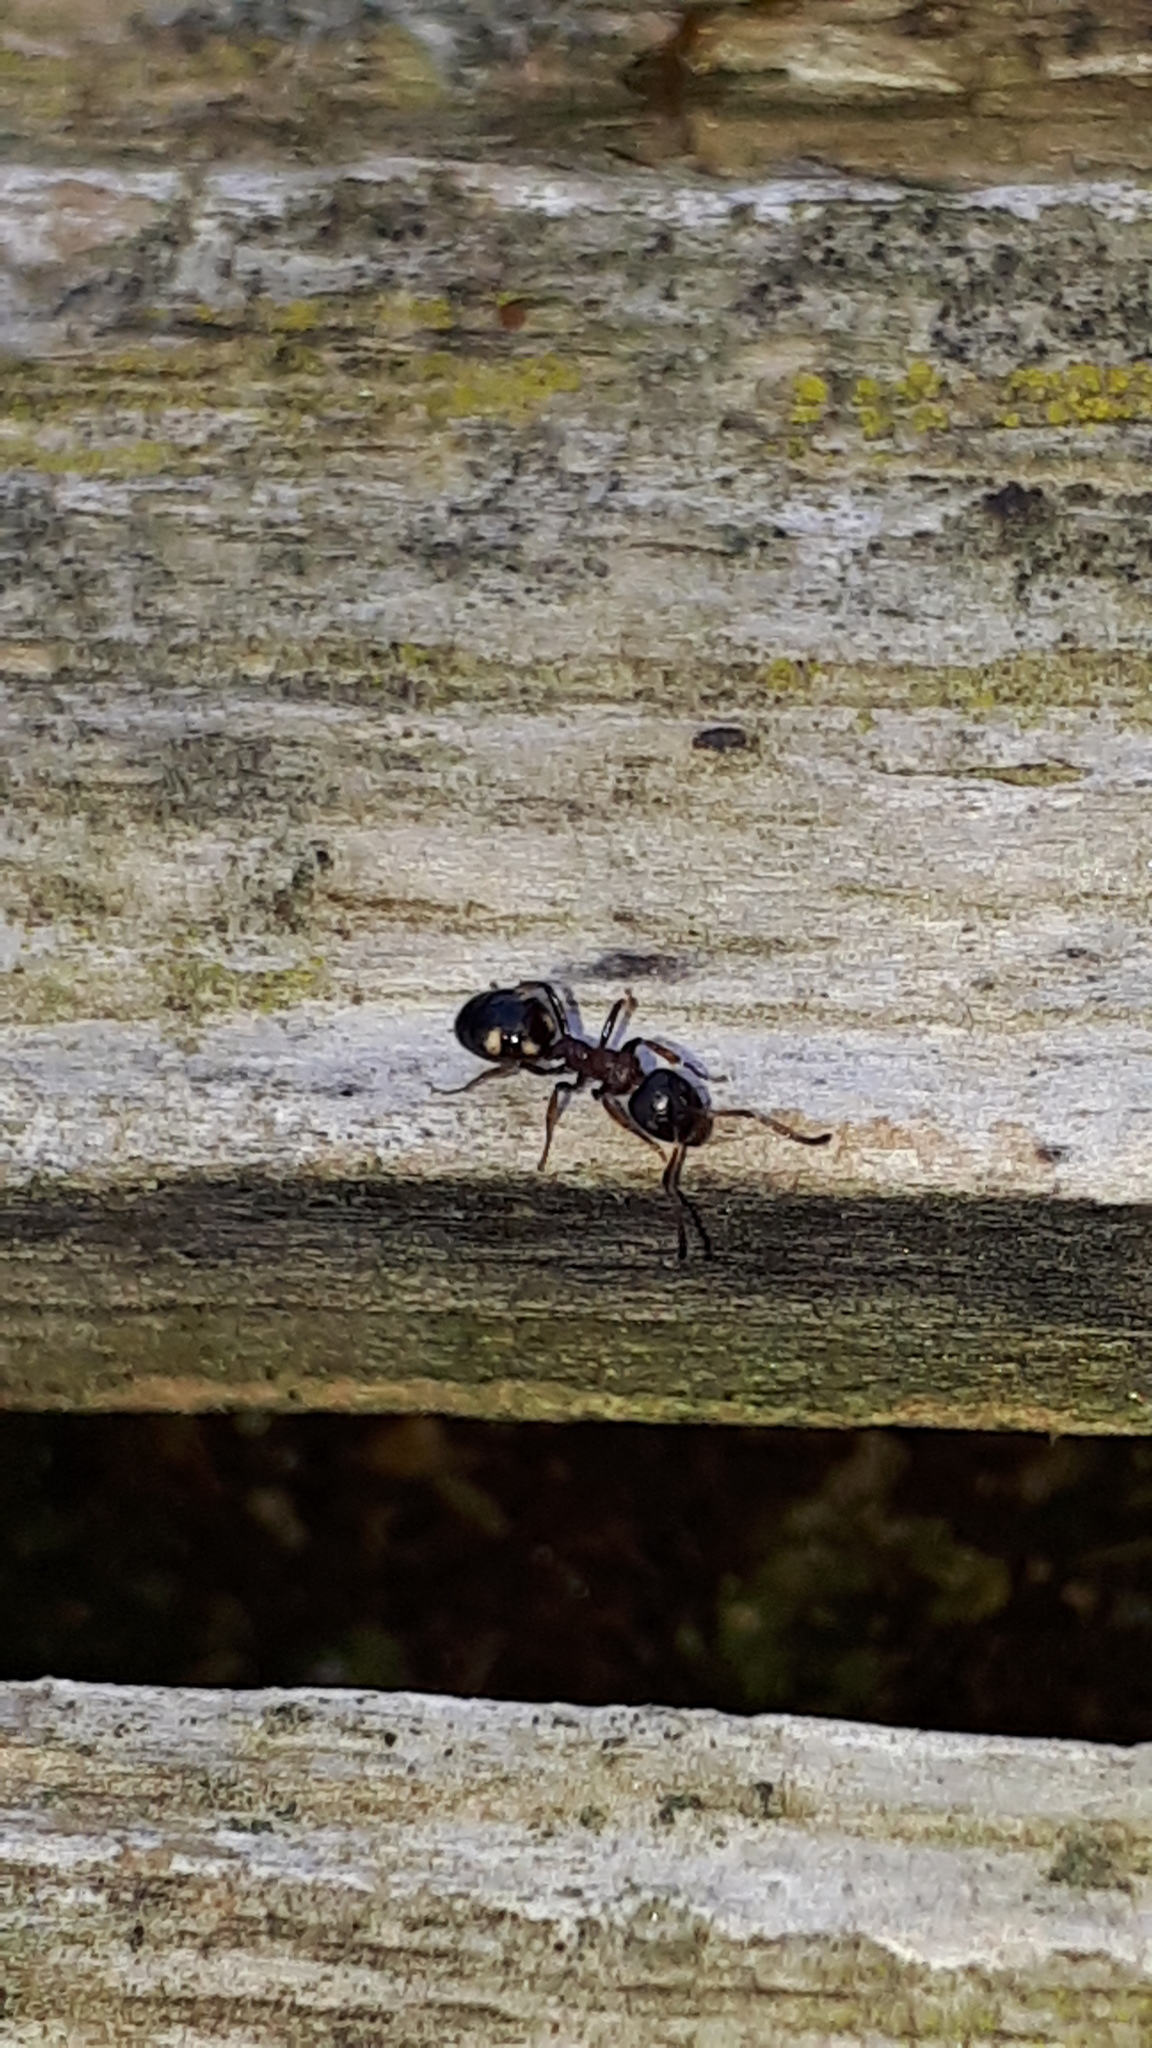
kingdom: Animalia
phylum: Arthropoda
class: Insecta
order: Hymenoptera
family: Formicidae
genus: Dolichoderus
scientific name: Dolichoderus quadripunctatus
